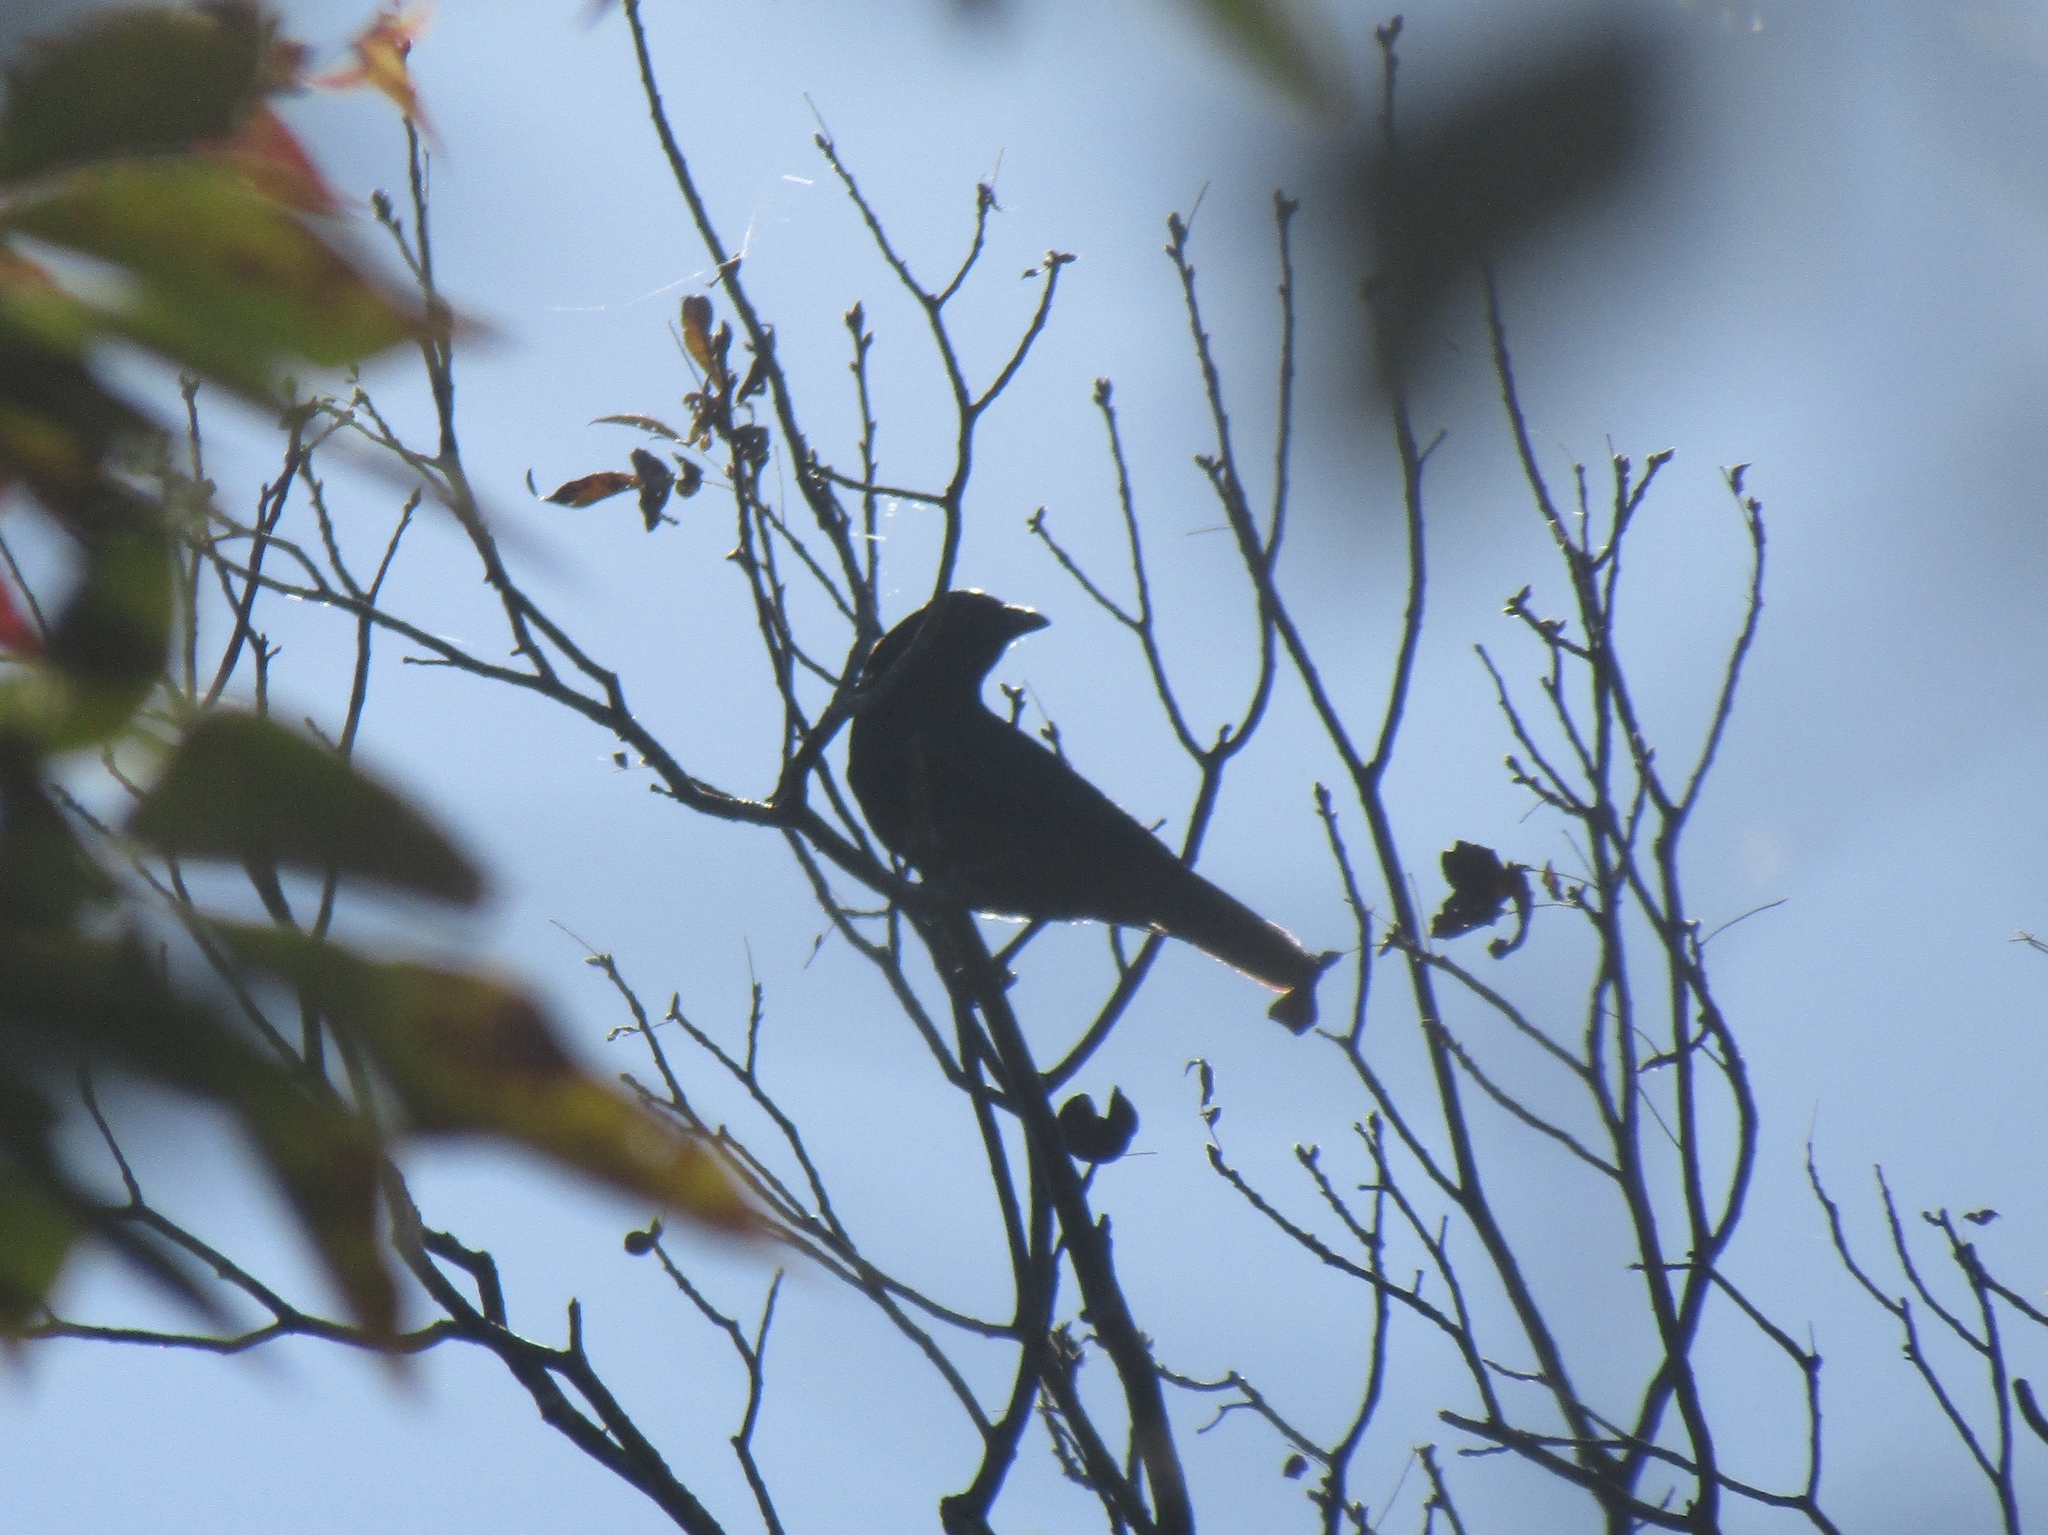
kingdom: Animalia
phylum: Chordata
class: Aves
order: Passeriformes
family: Corvidae
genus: Corvus
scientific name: Corvus brachyrhynchos
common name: American crow
